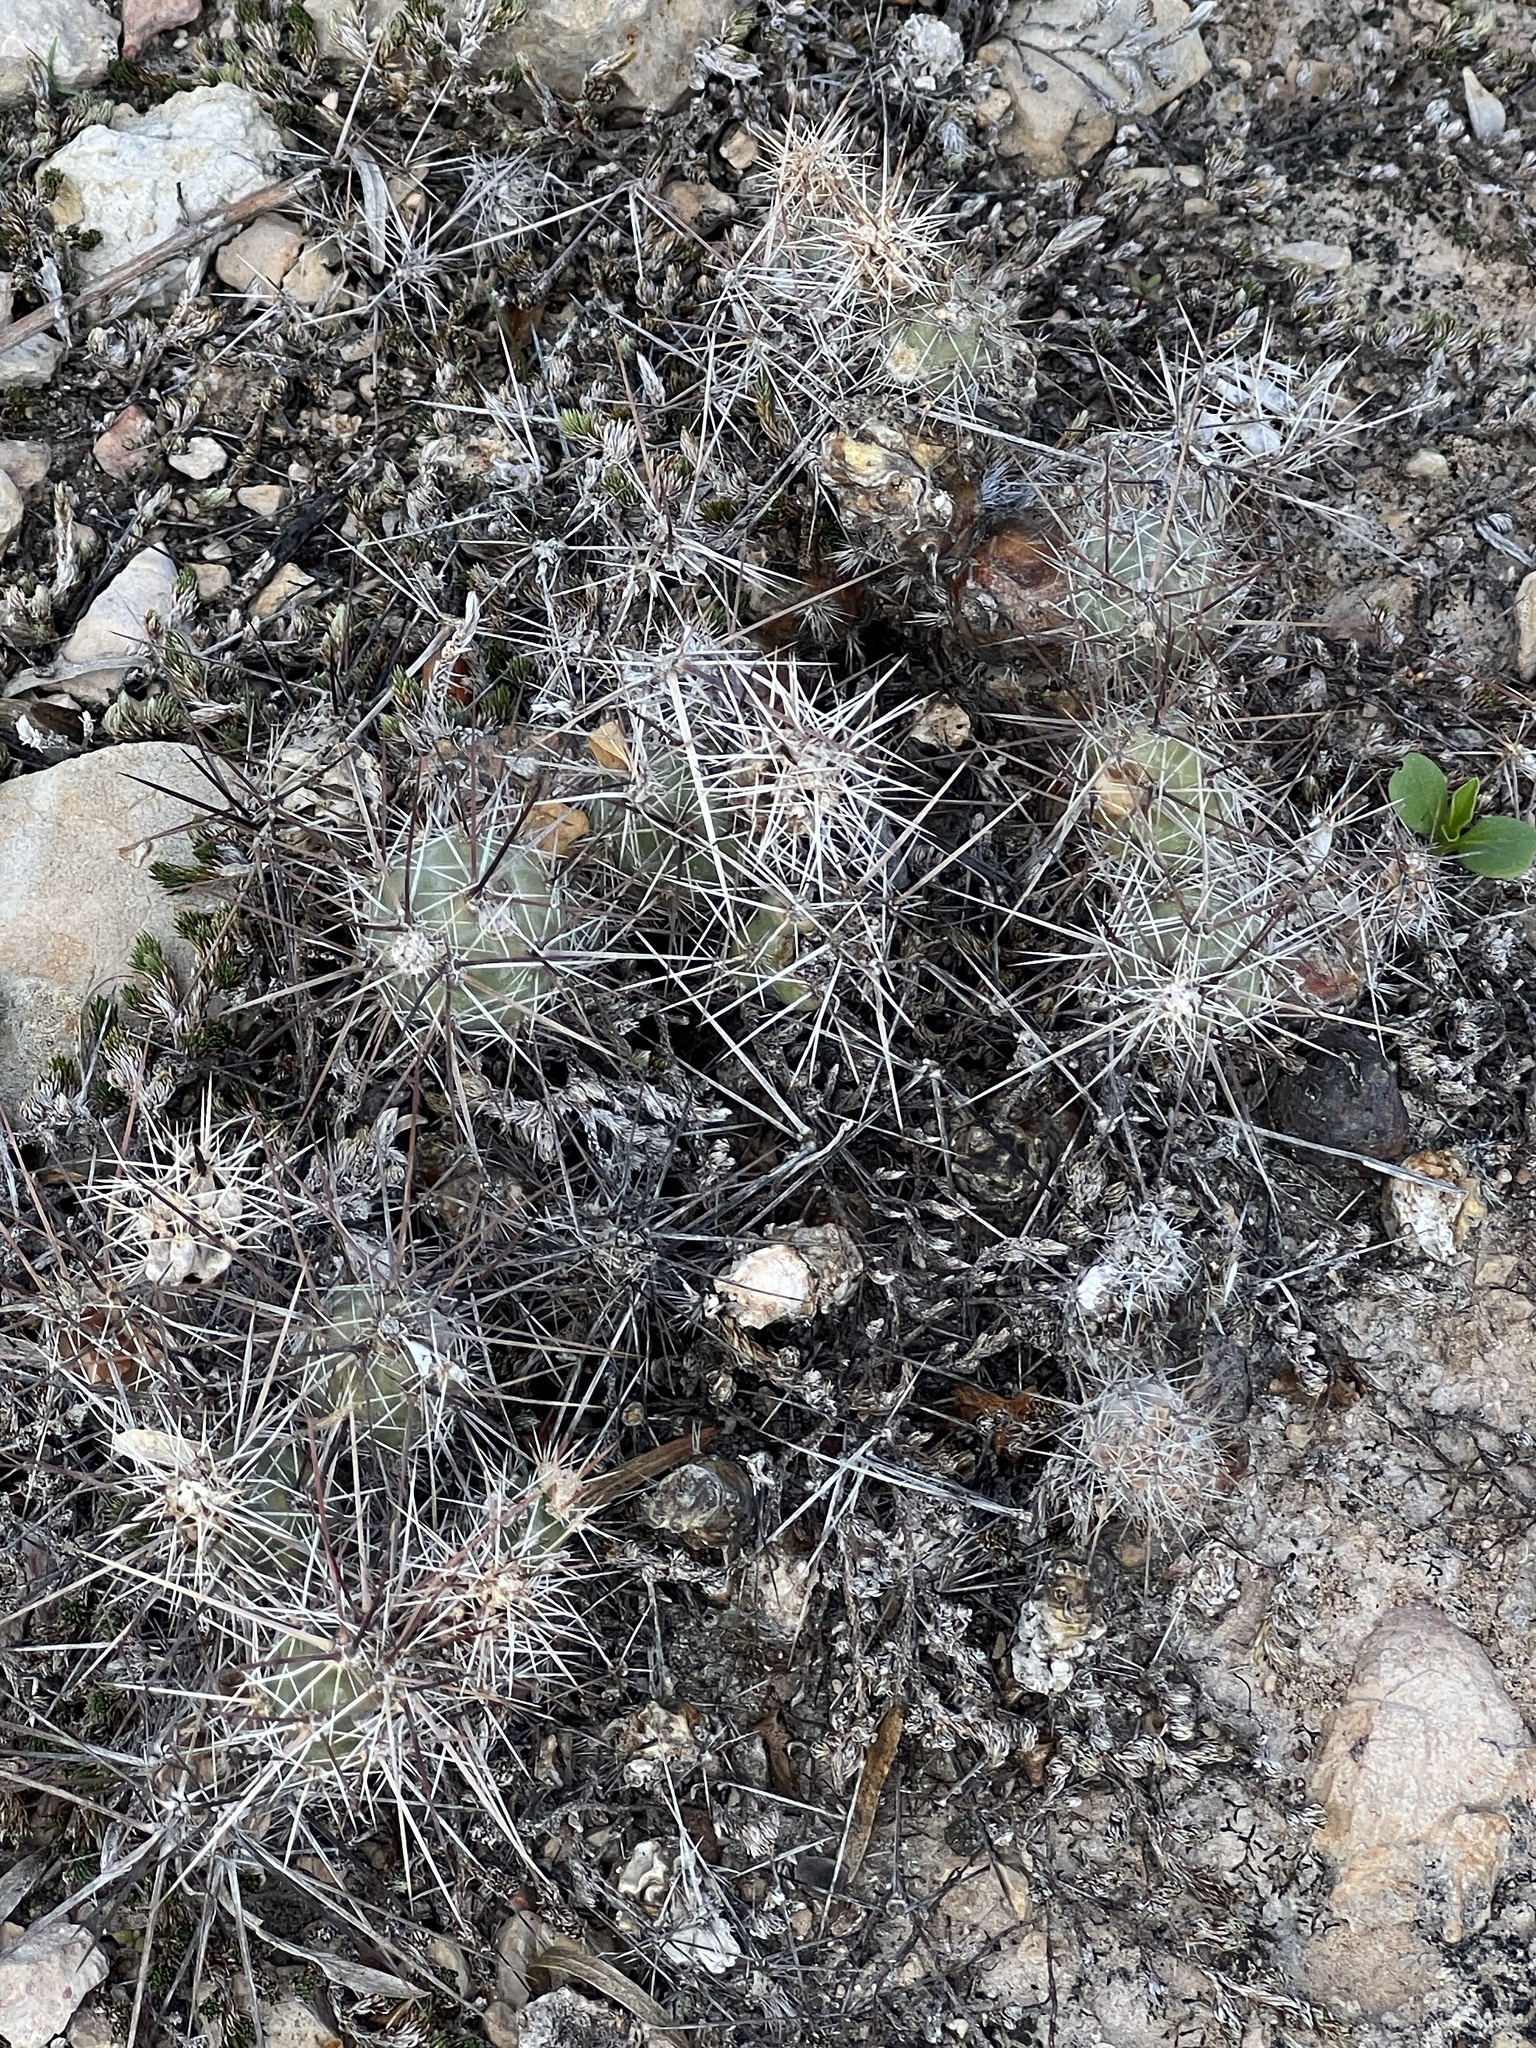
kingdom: Plantae
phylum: Tracheophyta
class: Magnoliopsida
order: Caryophyllales
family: Cactaceae
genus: Grusonia
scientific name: Grusonia schottii
